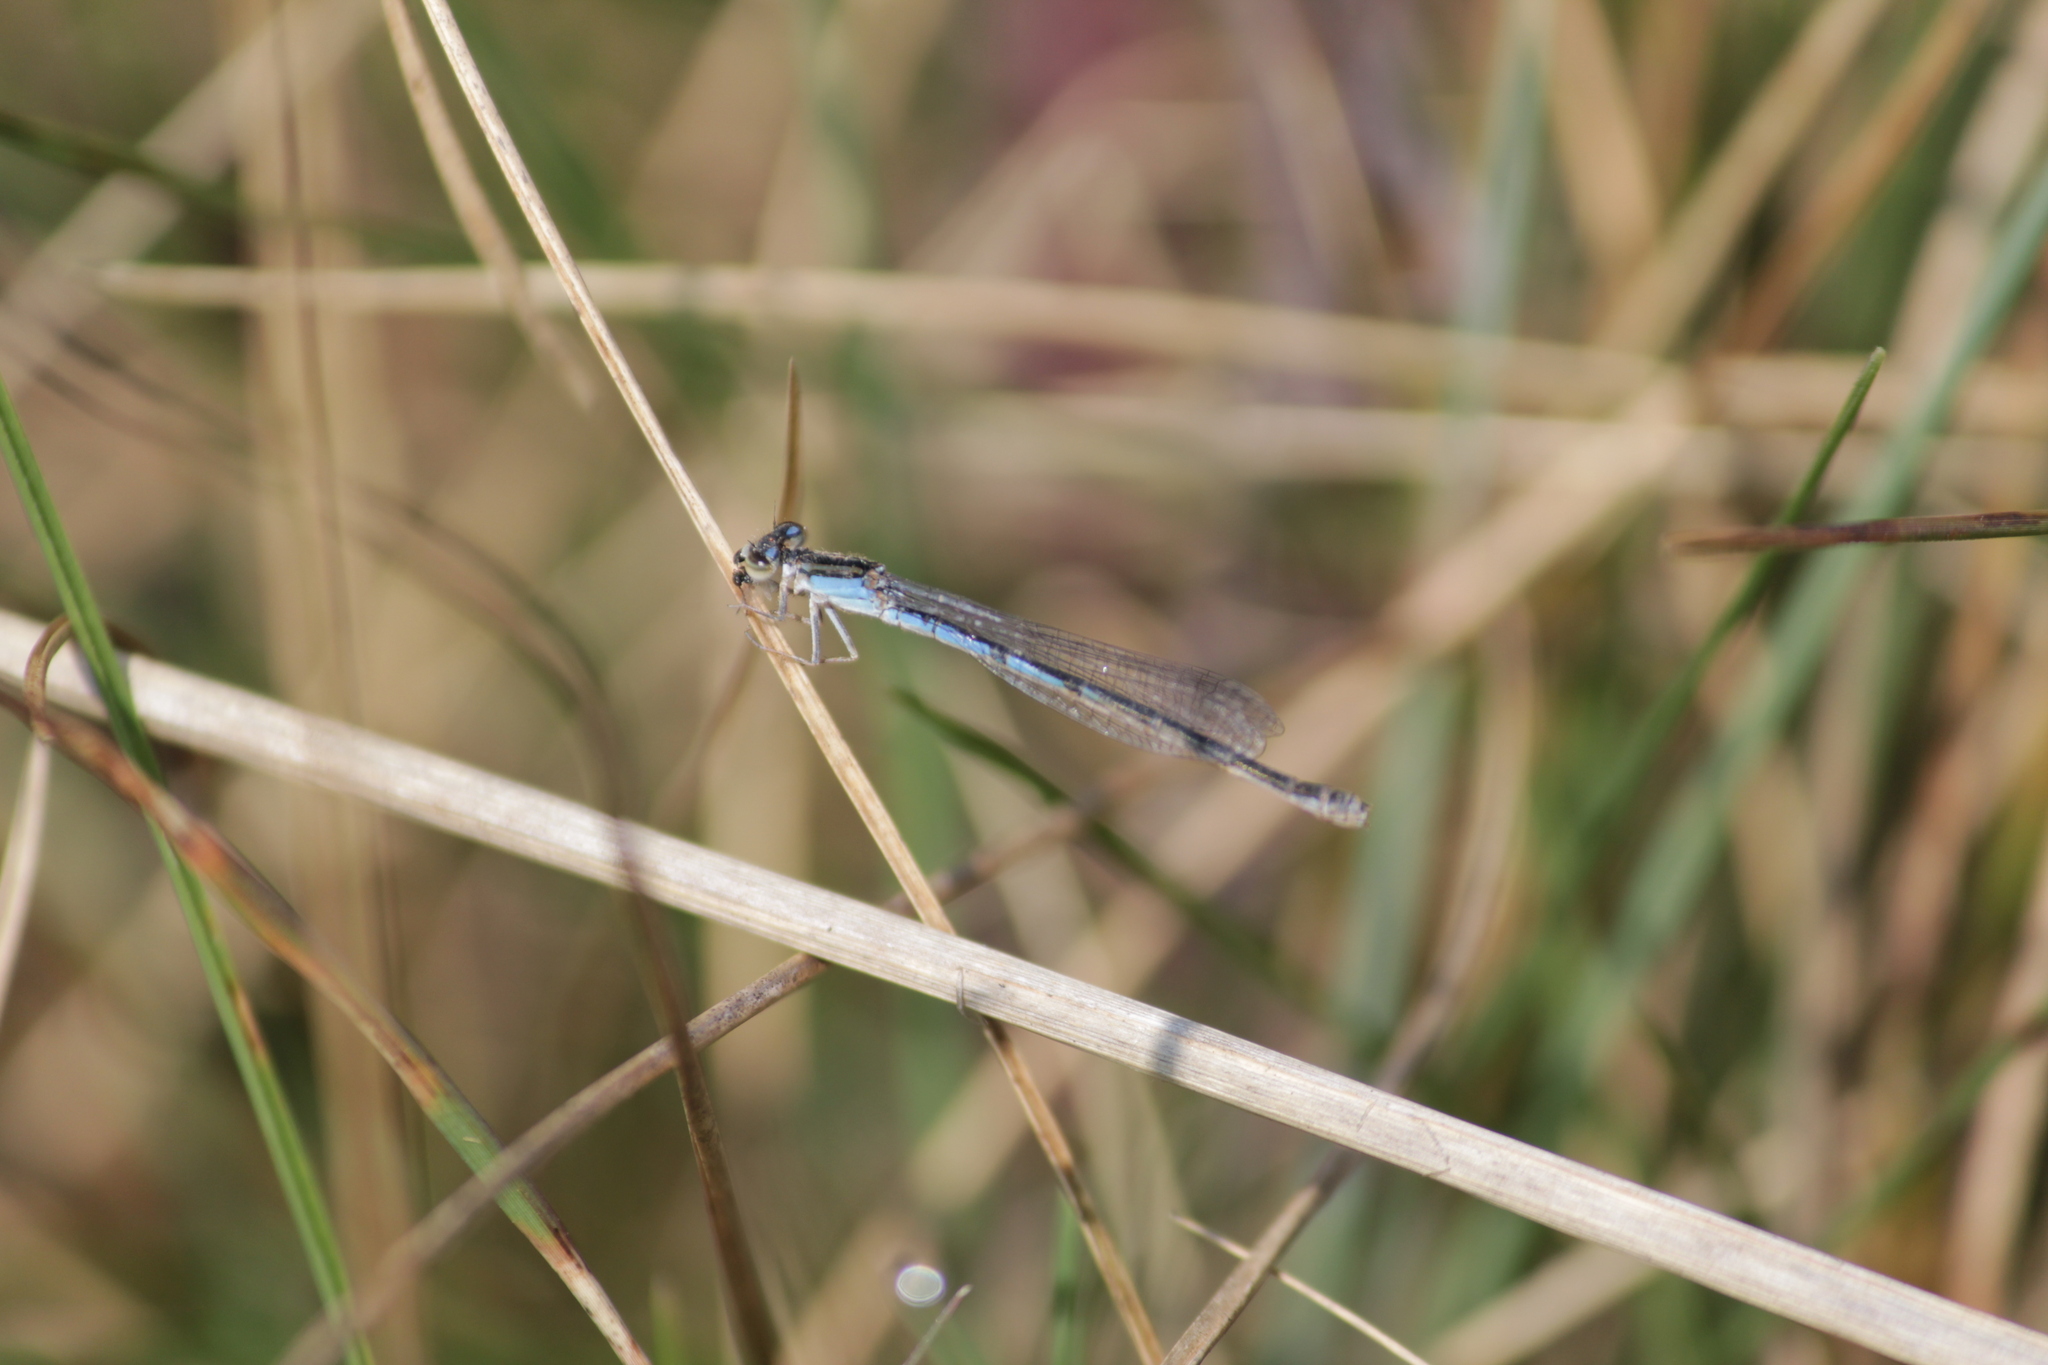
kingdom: Animalia
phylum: Arthropoda
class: Insecta
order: Odonata
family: Coenagrionidae
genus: Africallagma
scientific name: Africallagma sapphirinum
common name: Sapphire bluet
